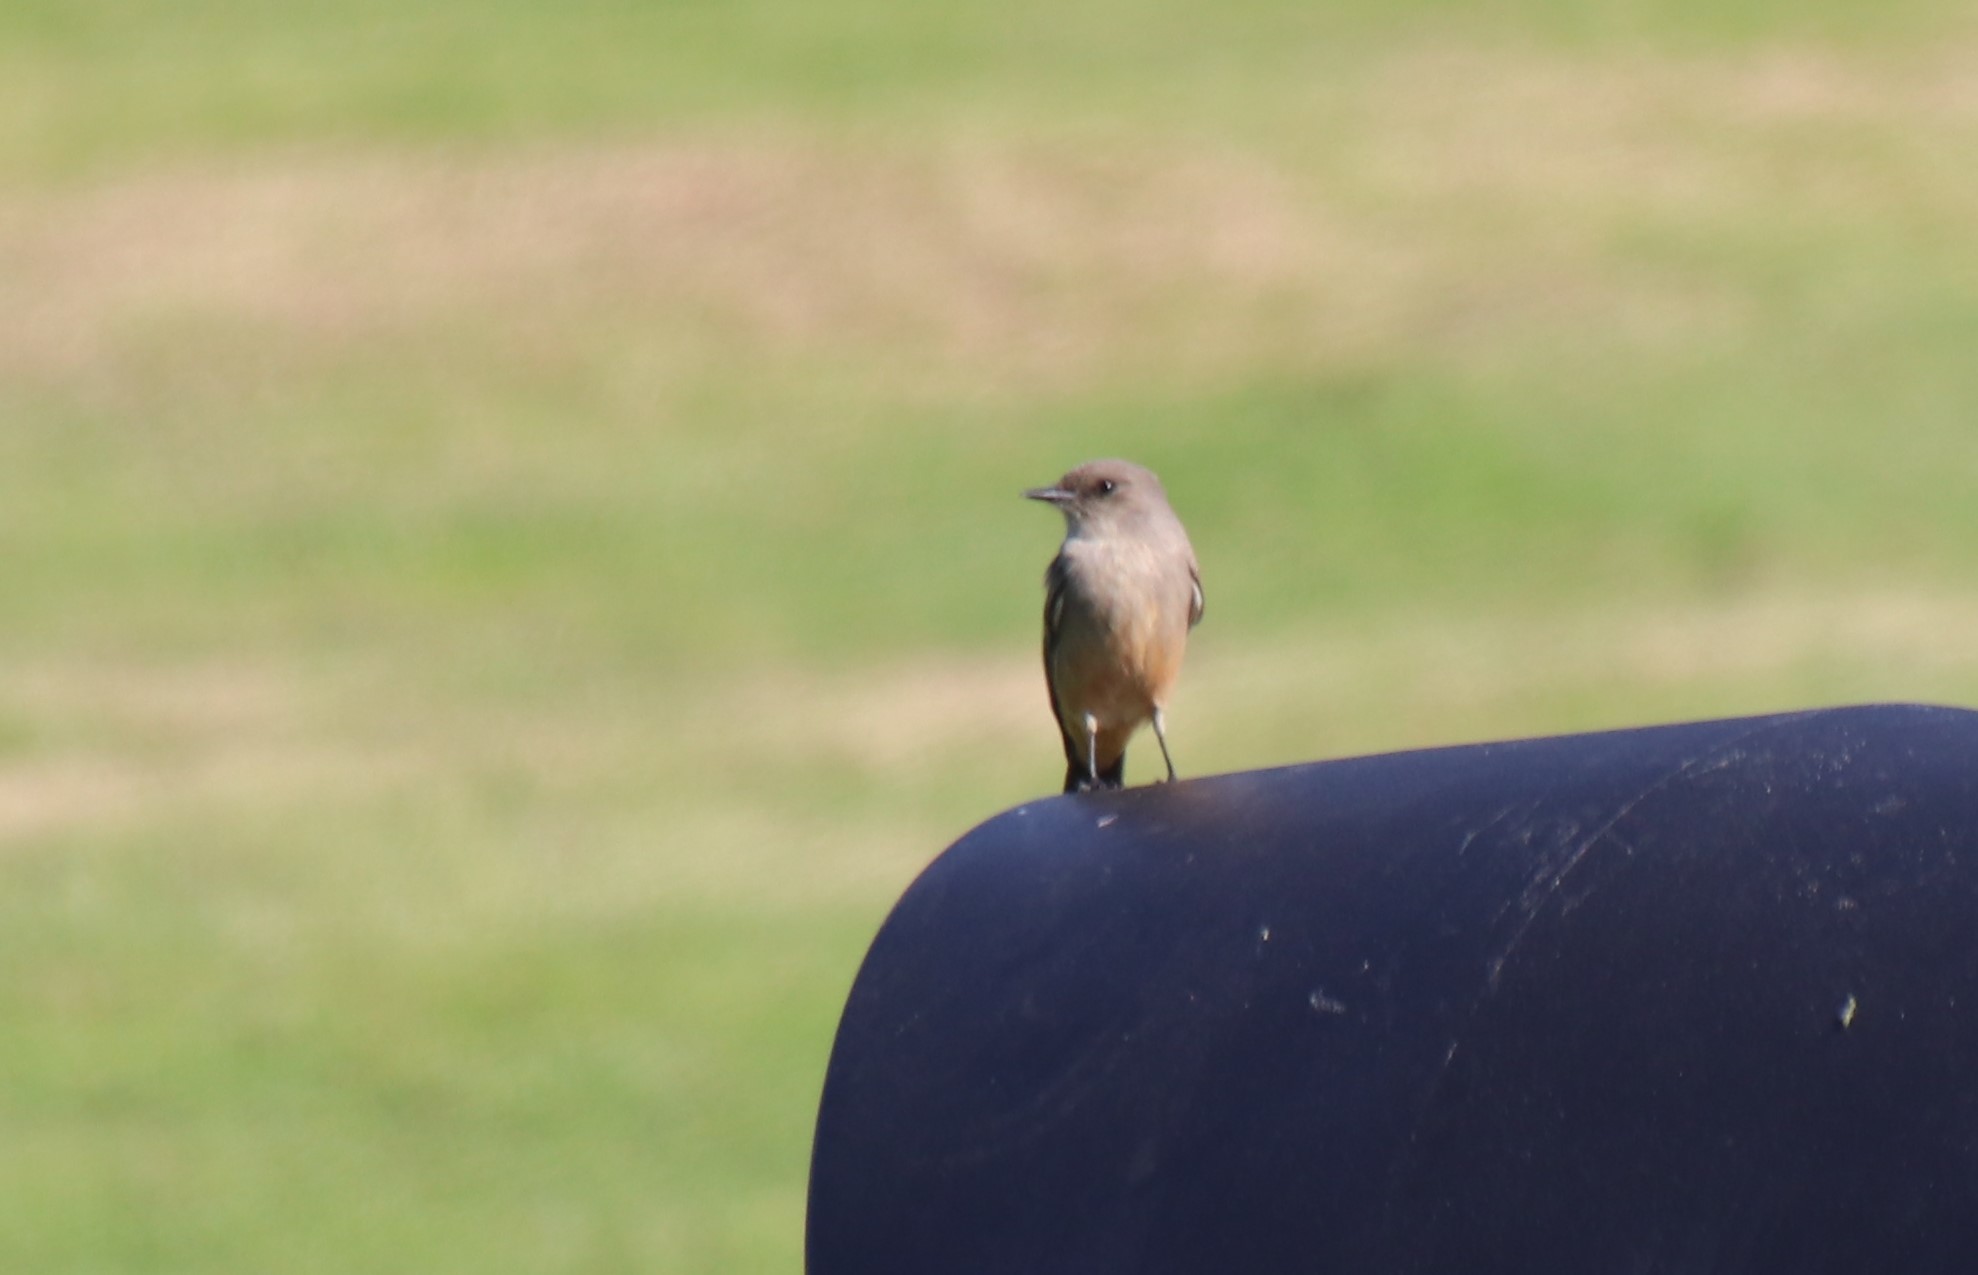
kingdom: Animalia
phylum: Chordata
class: Aves
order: Passeriformes
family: Tyrannidae
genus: Sayornis
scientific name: Sayornis saya
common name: Say's phoebe
